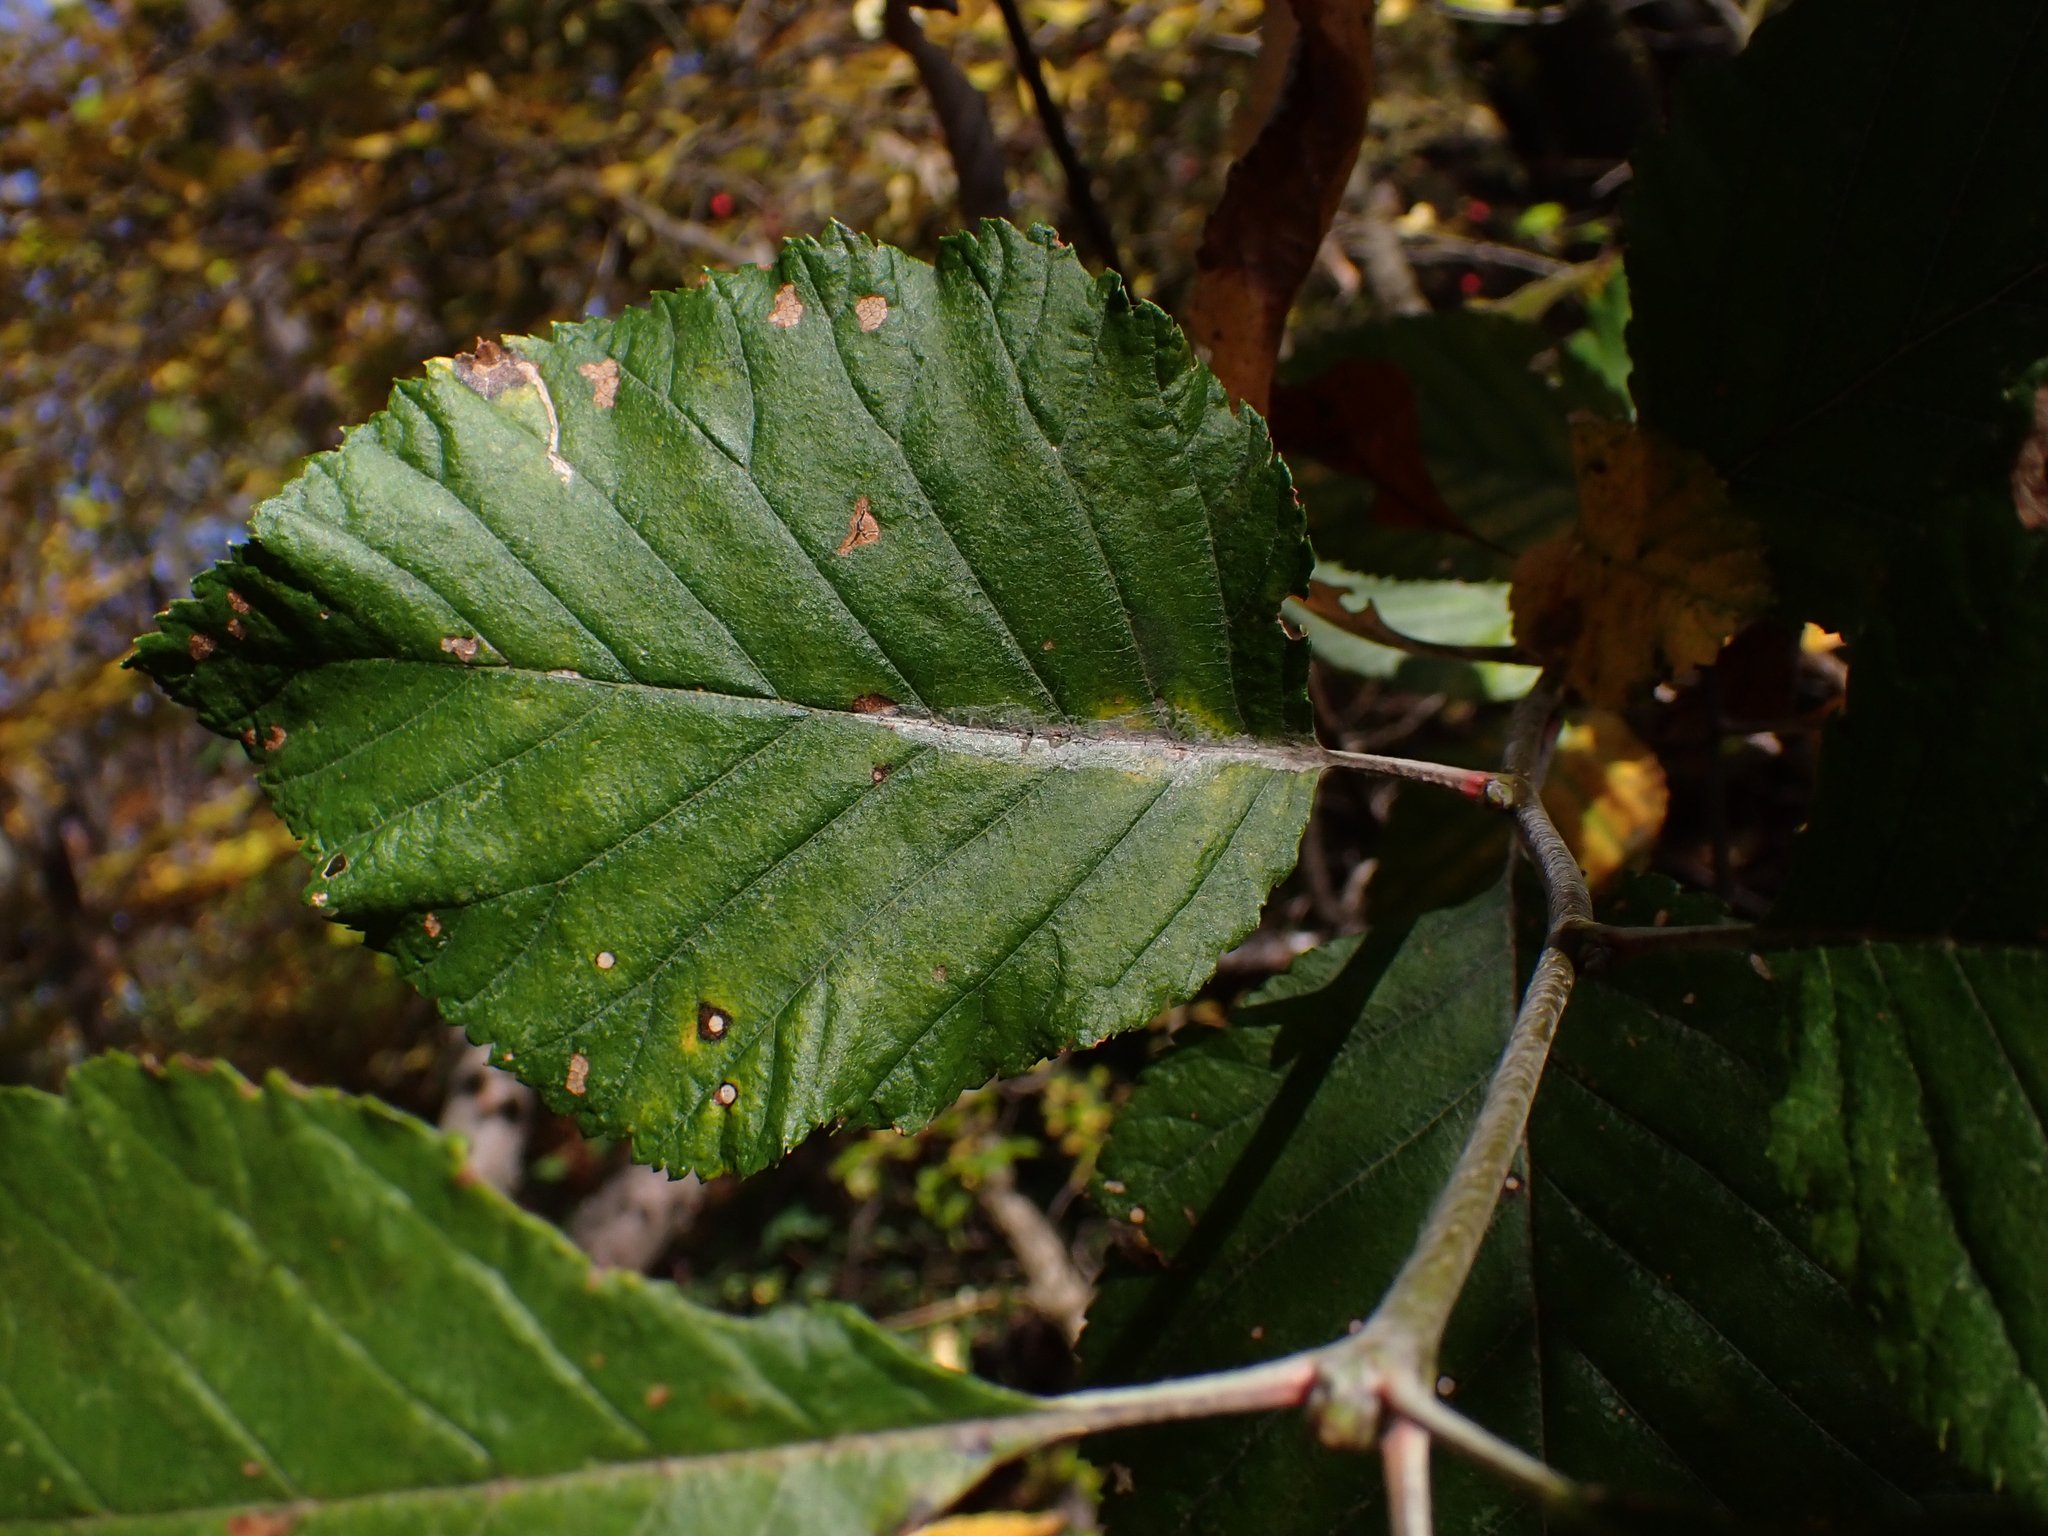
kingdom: Animalia
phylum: Arthropoda
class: Insecta
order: Lepidoptera
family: Gracillariidae
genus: Phyllonorycter
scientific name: Phyllonorycter corylifoliella
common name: Hawthorn midget
